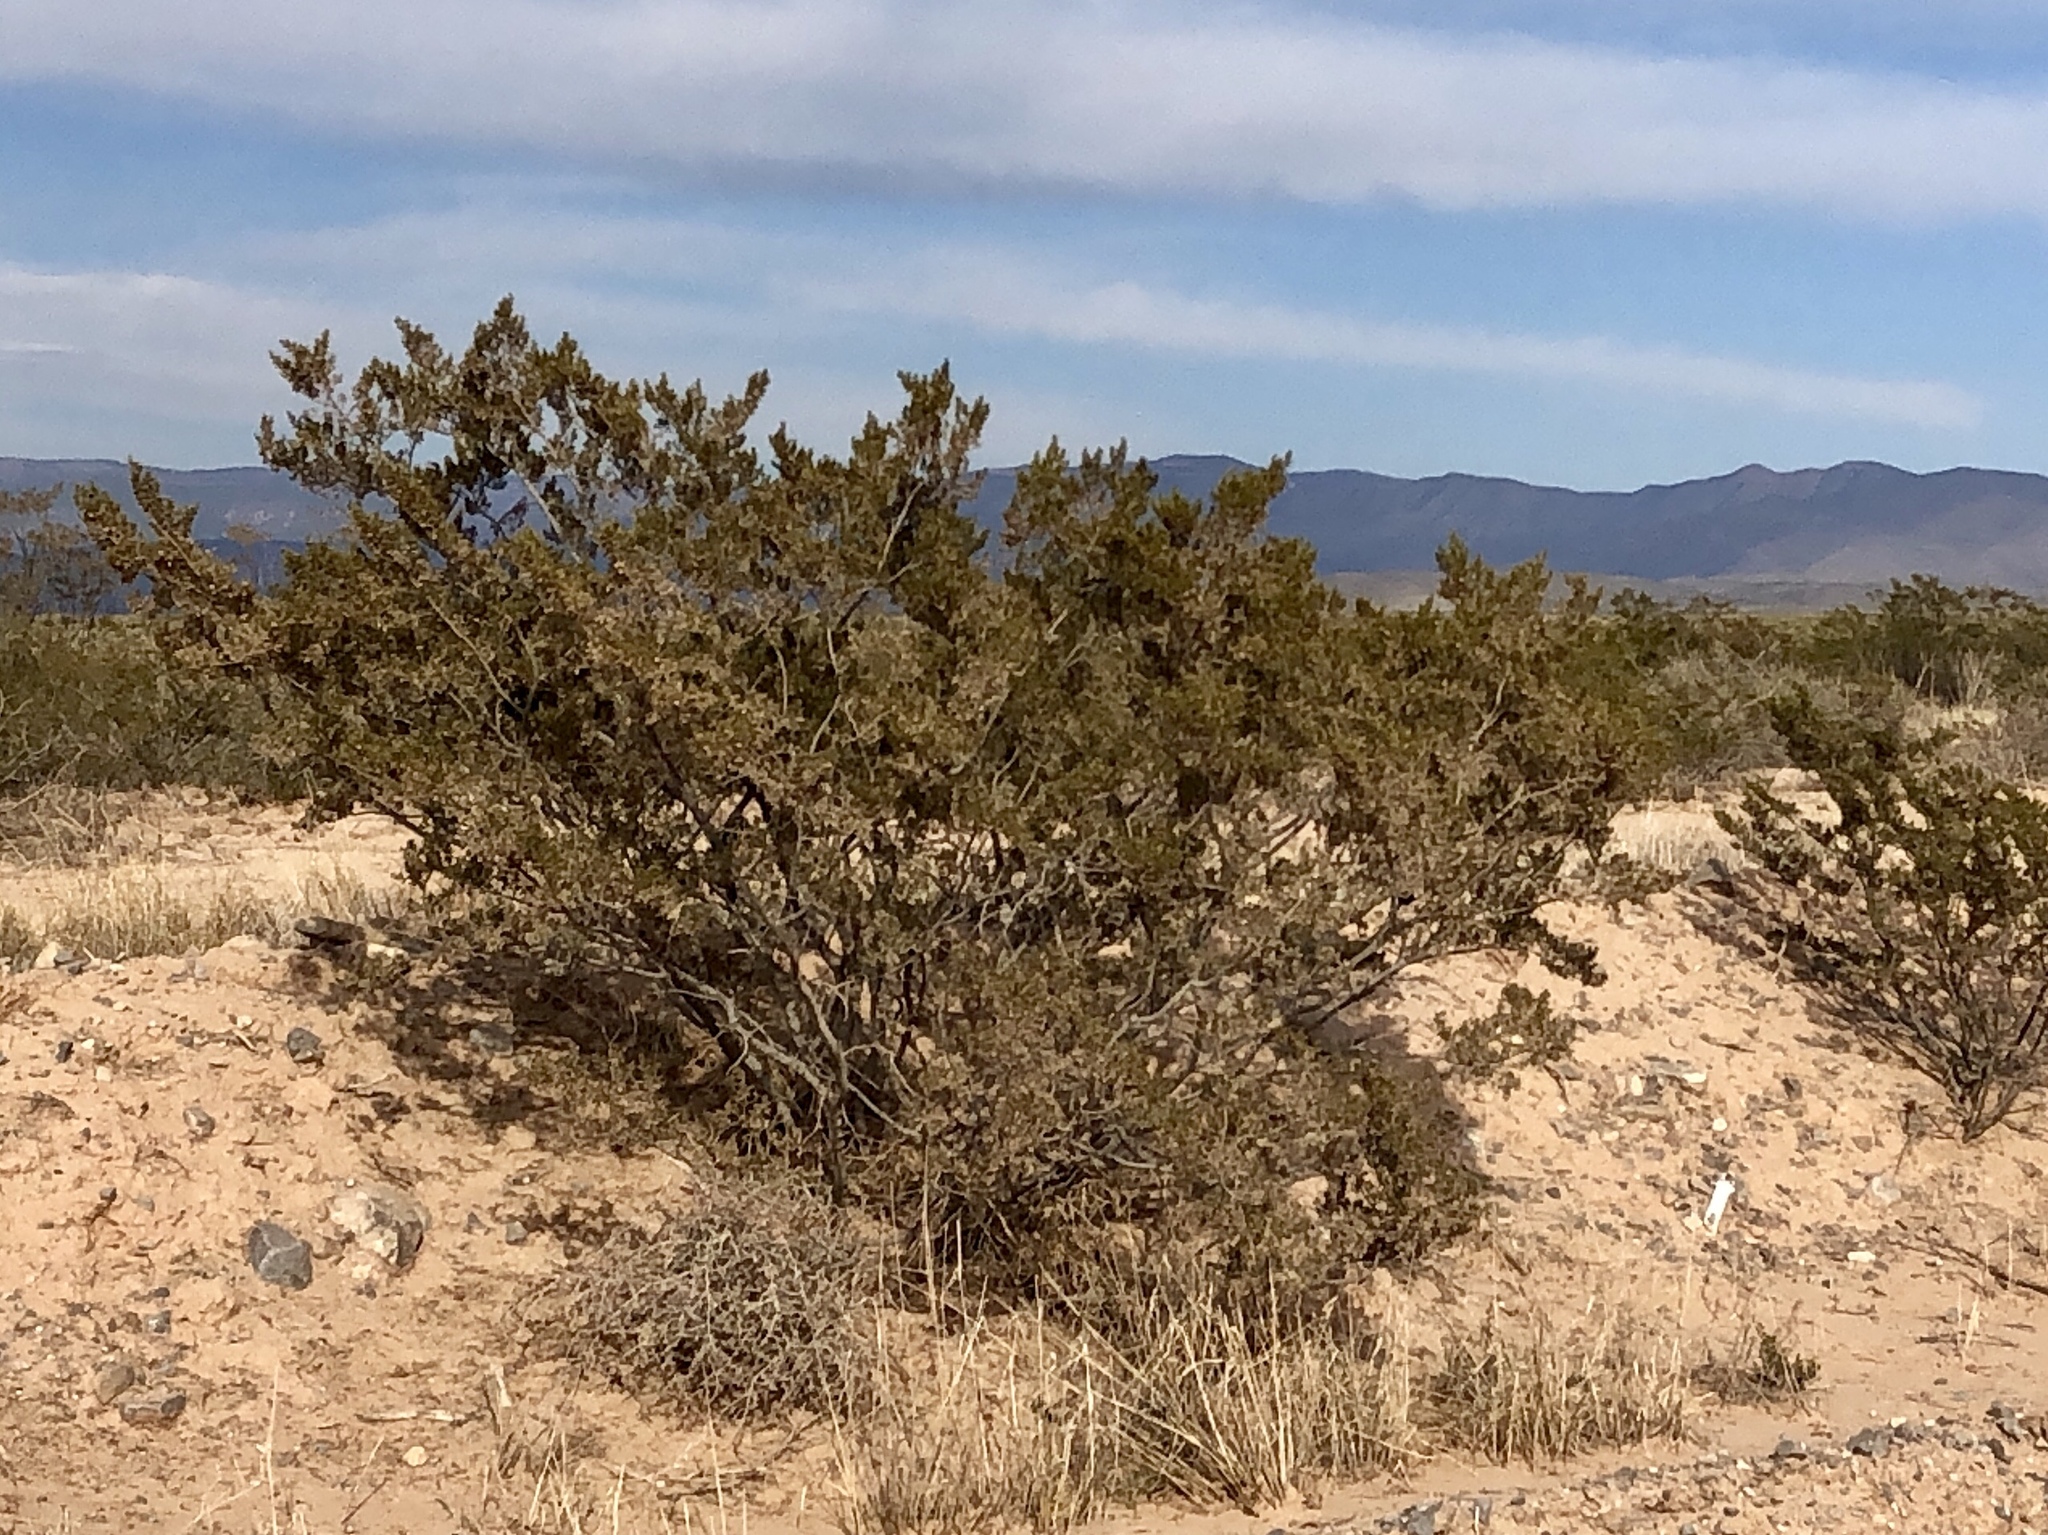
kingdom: Plantae
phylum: Tracheophyta
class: Magnoliopsida
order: Zygophyllales
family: Zygophyllaceae
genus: Larrea
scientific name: Larrea tridentata
